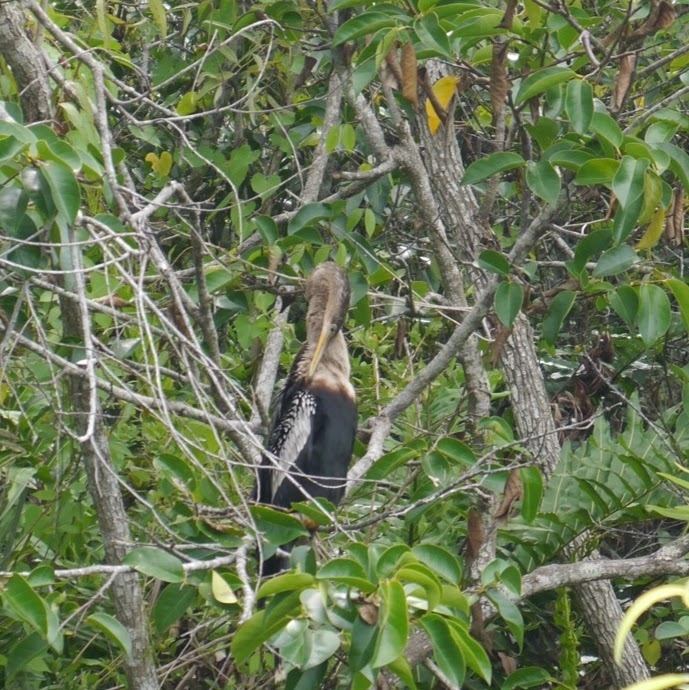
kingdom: Animalia
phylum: Chordata
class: Aves
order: Suliformes
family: Anhingidae
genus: Anhinga
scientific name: Anhinga anhinga
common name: Anhinga
